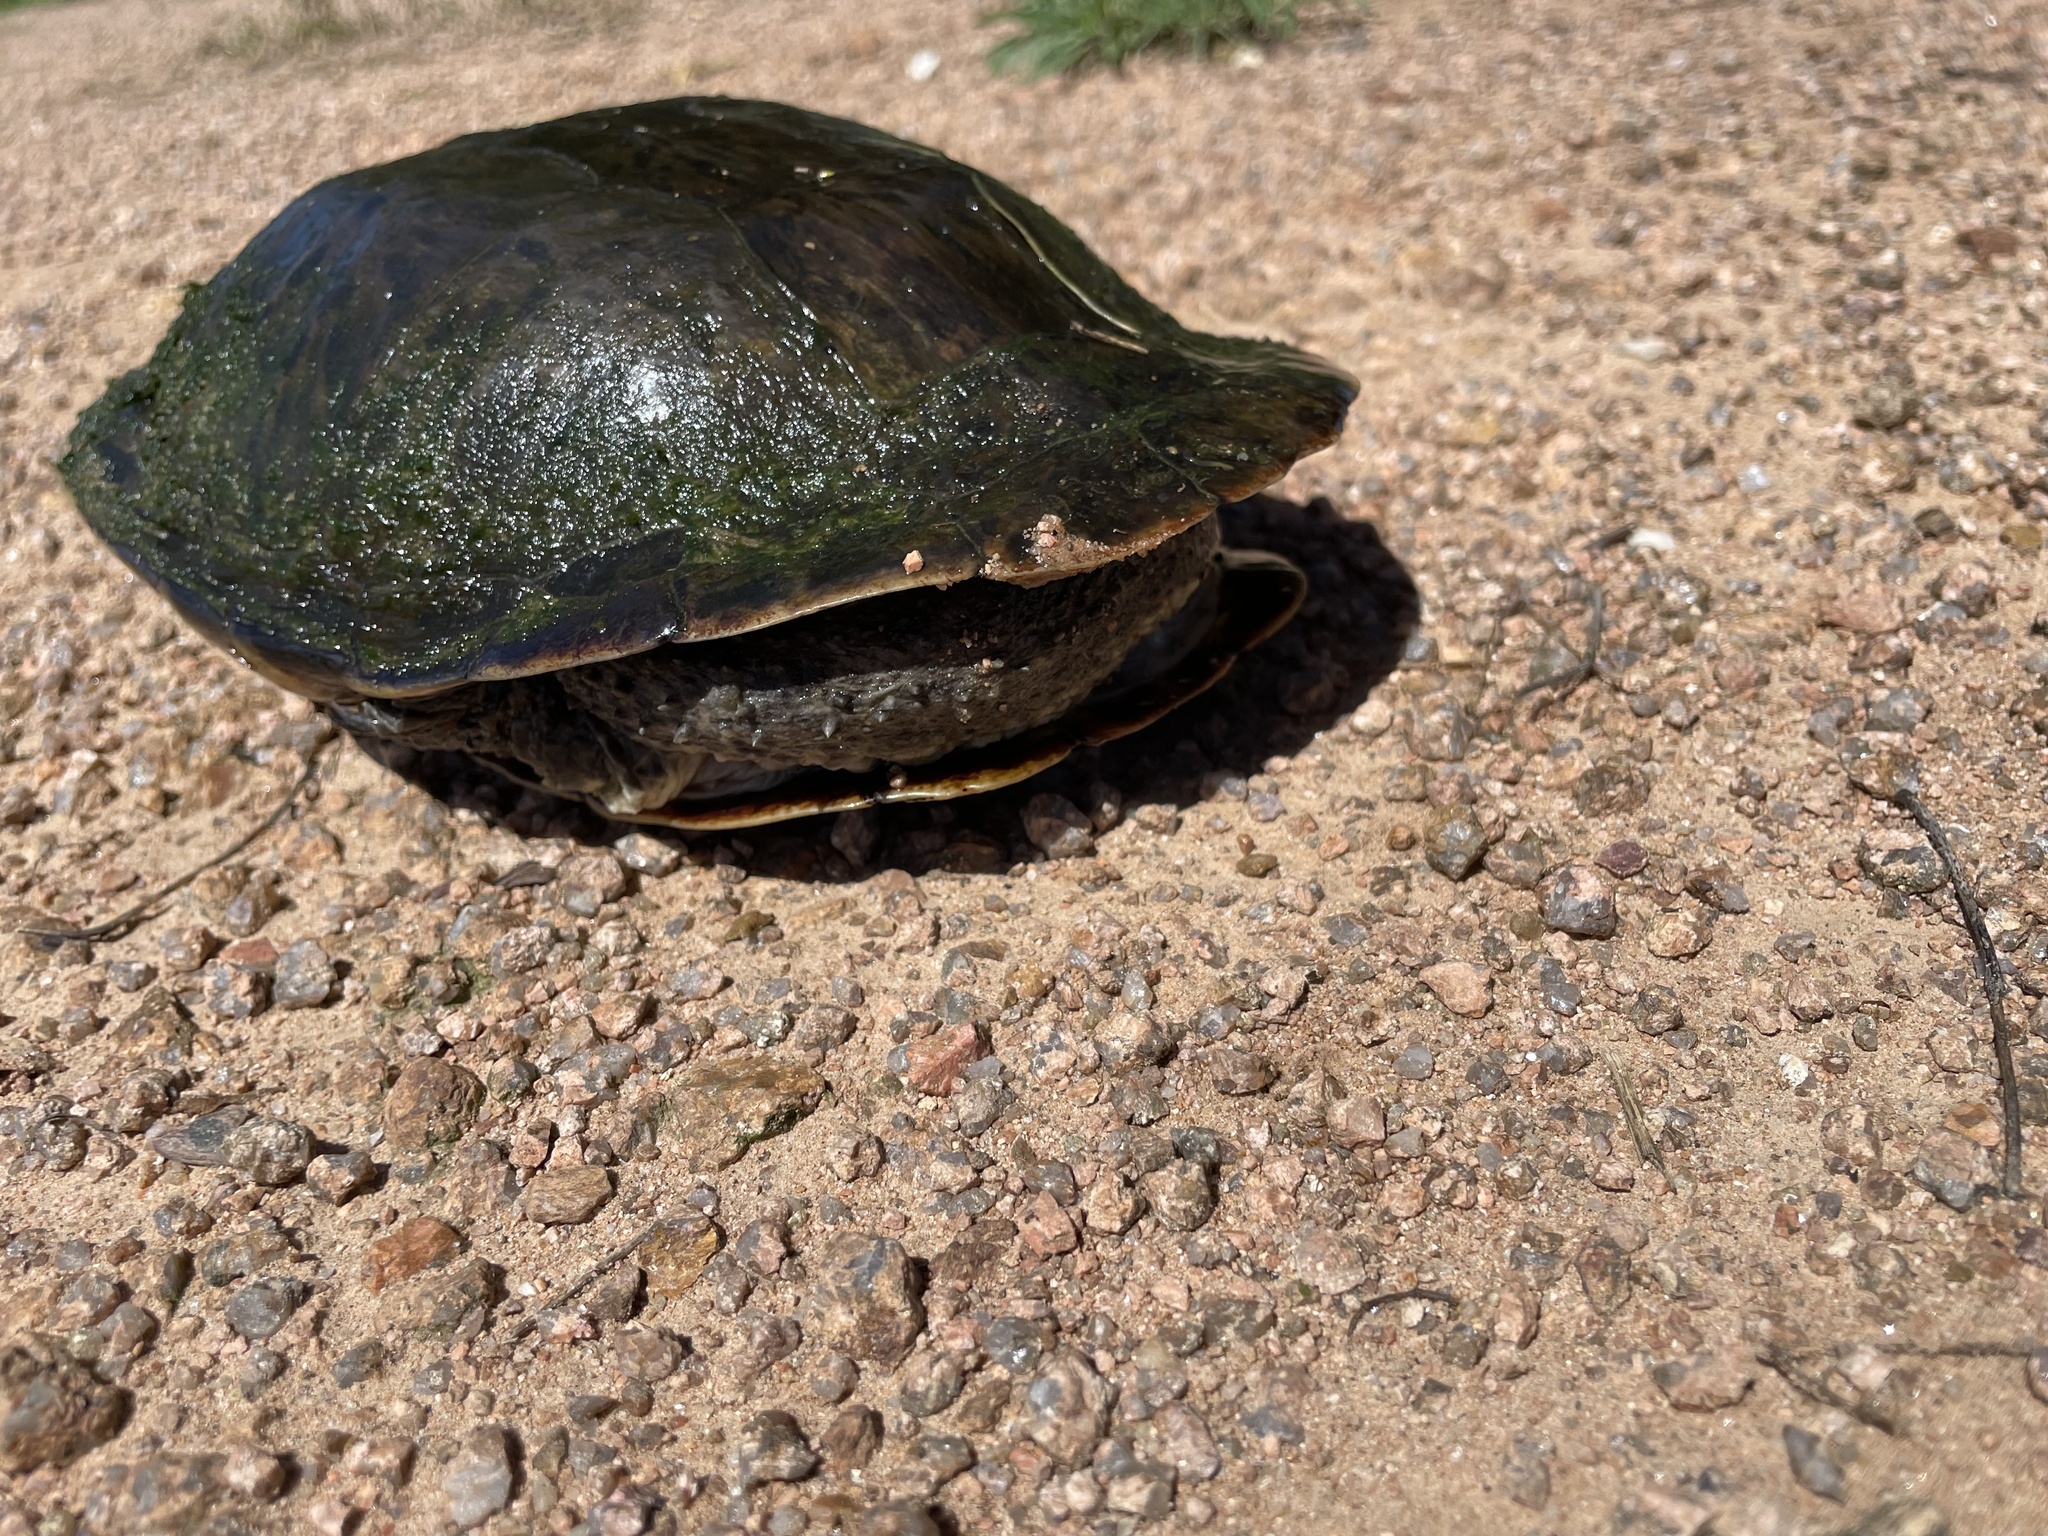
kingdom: Animalia
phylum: Chordata
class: Testudines
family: Chelidae
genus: Hydromedusa
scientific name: Hydromedusa tectifera
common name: Argentine snake-necked turtle
